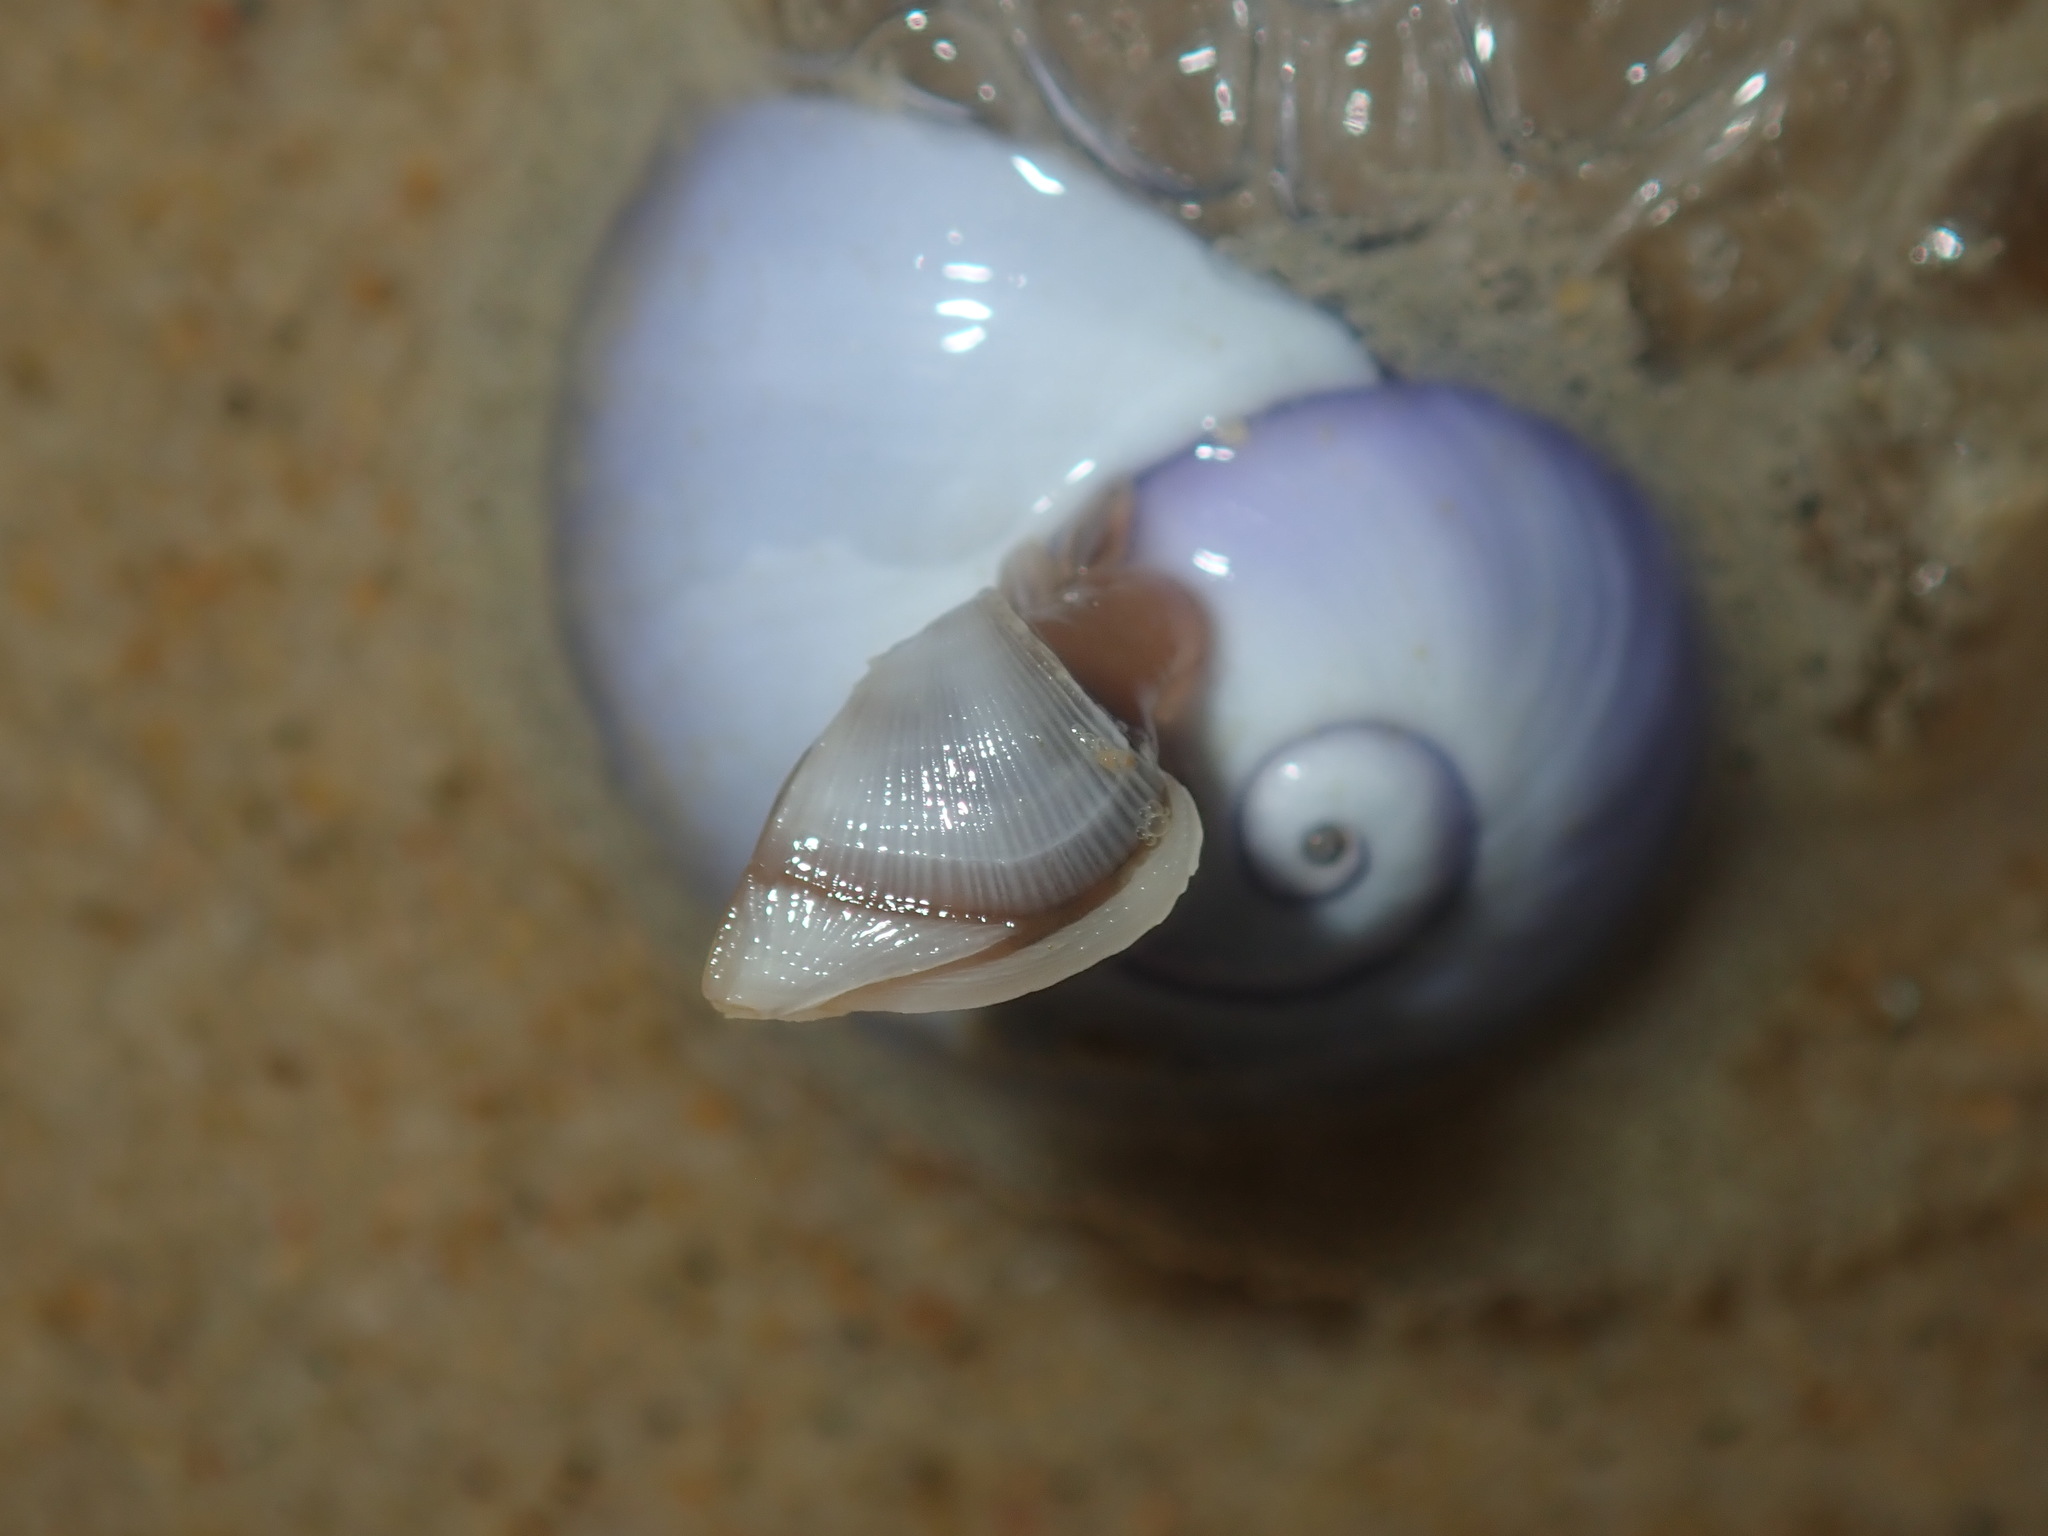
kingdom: Animalia
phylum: Arthropoda
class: Maxillopoda
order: Pedunculata
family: Lepadidae
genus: Lepas
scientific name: Lepas pectinata
